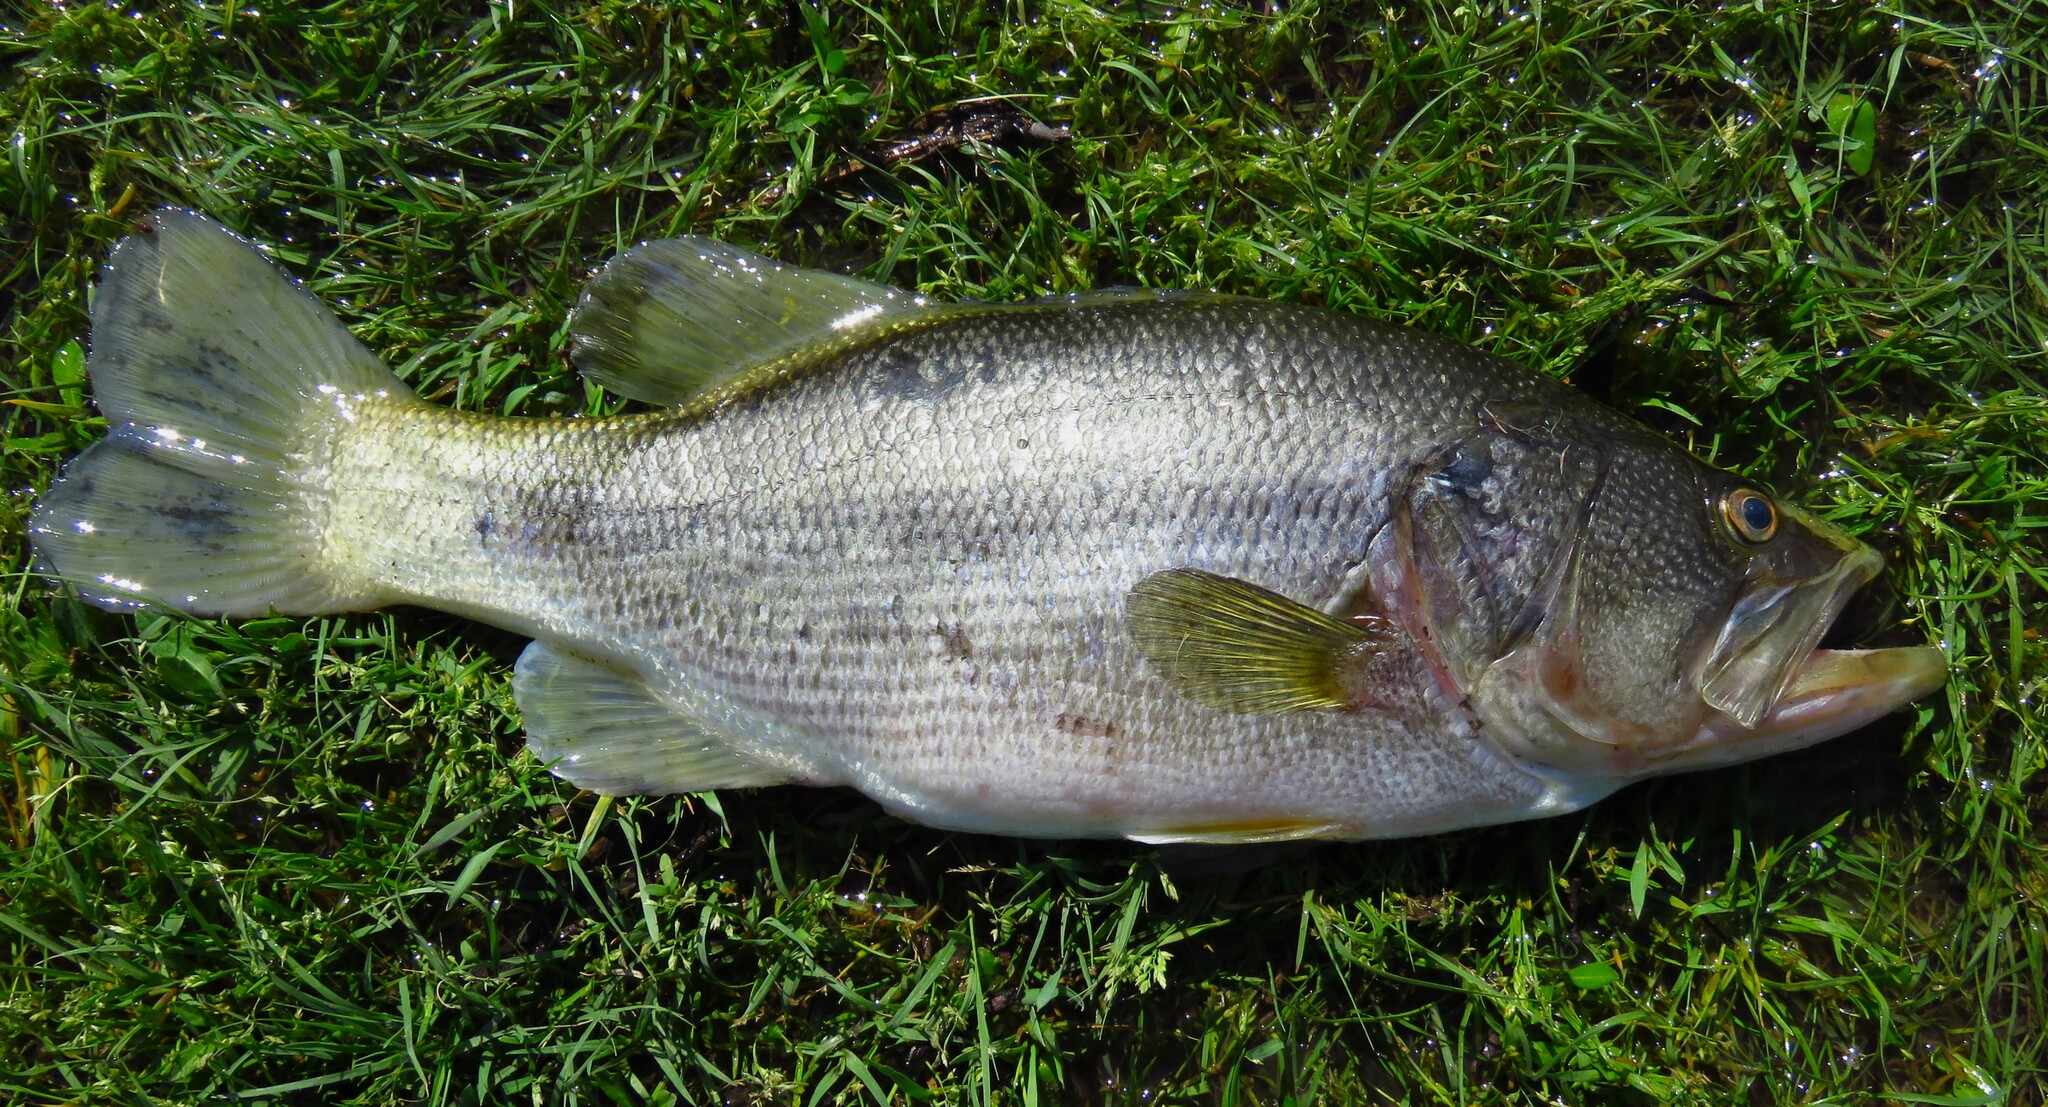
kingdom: Animalia
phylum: Chordata
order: Perciformes
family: Centrarchidae
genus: Micropterus
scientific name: Micropterus
